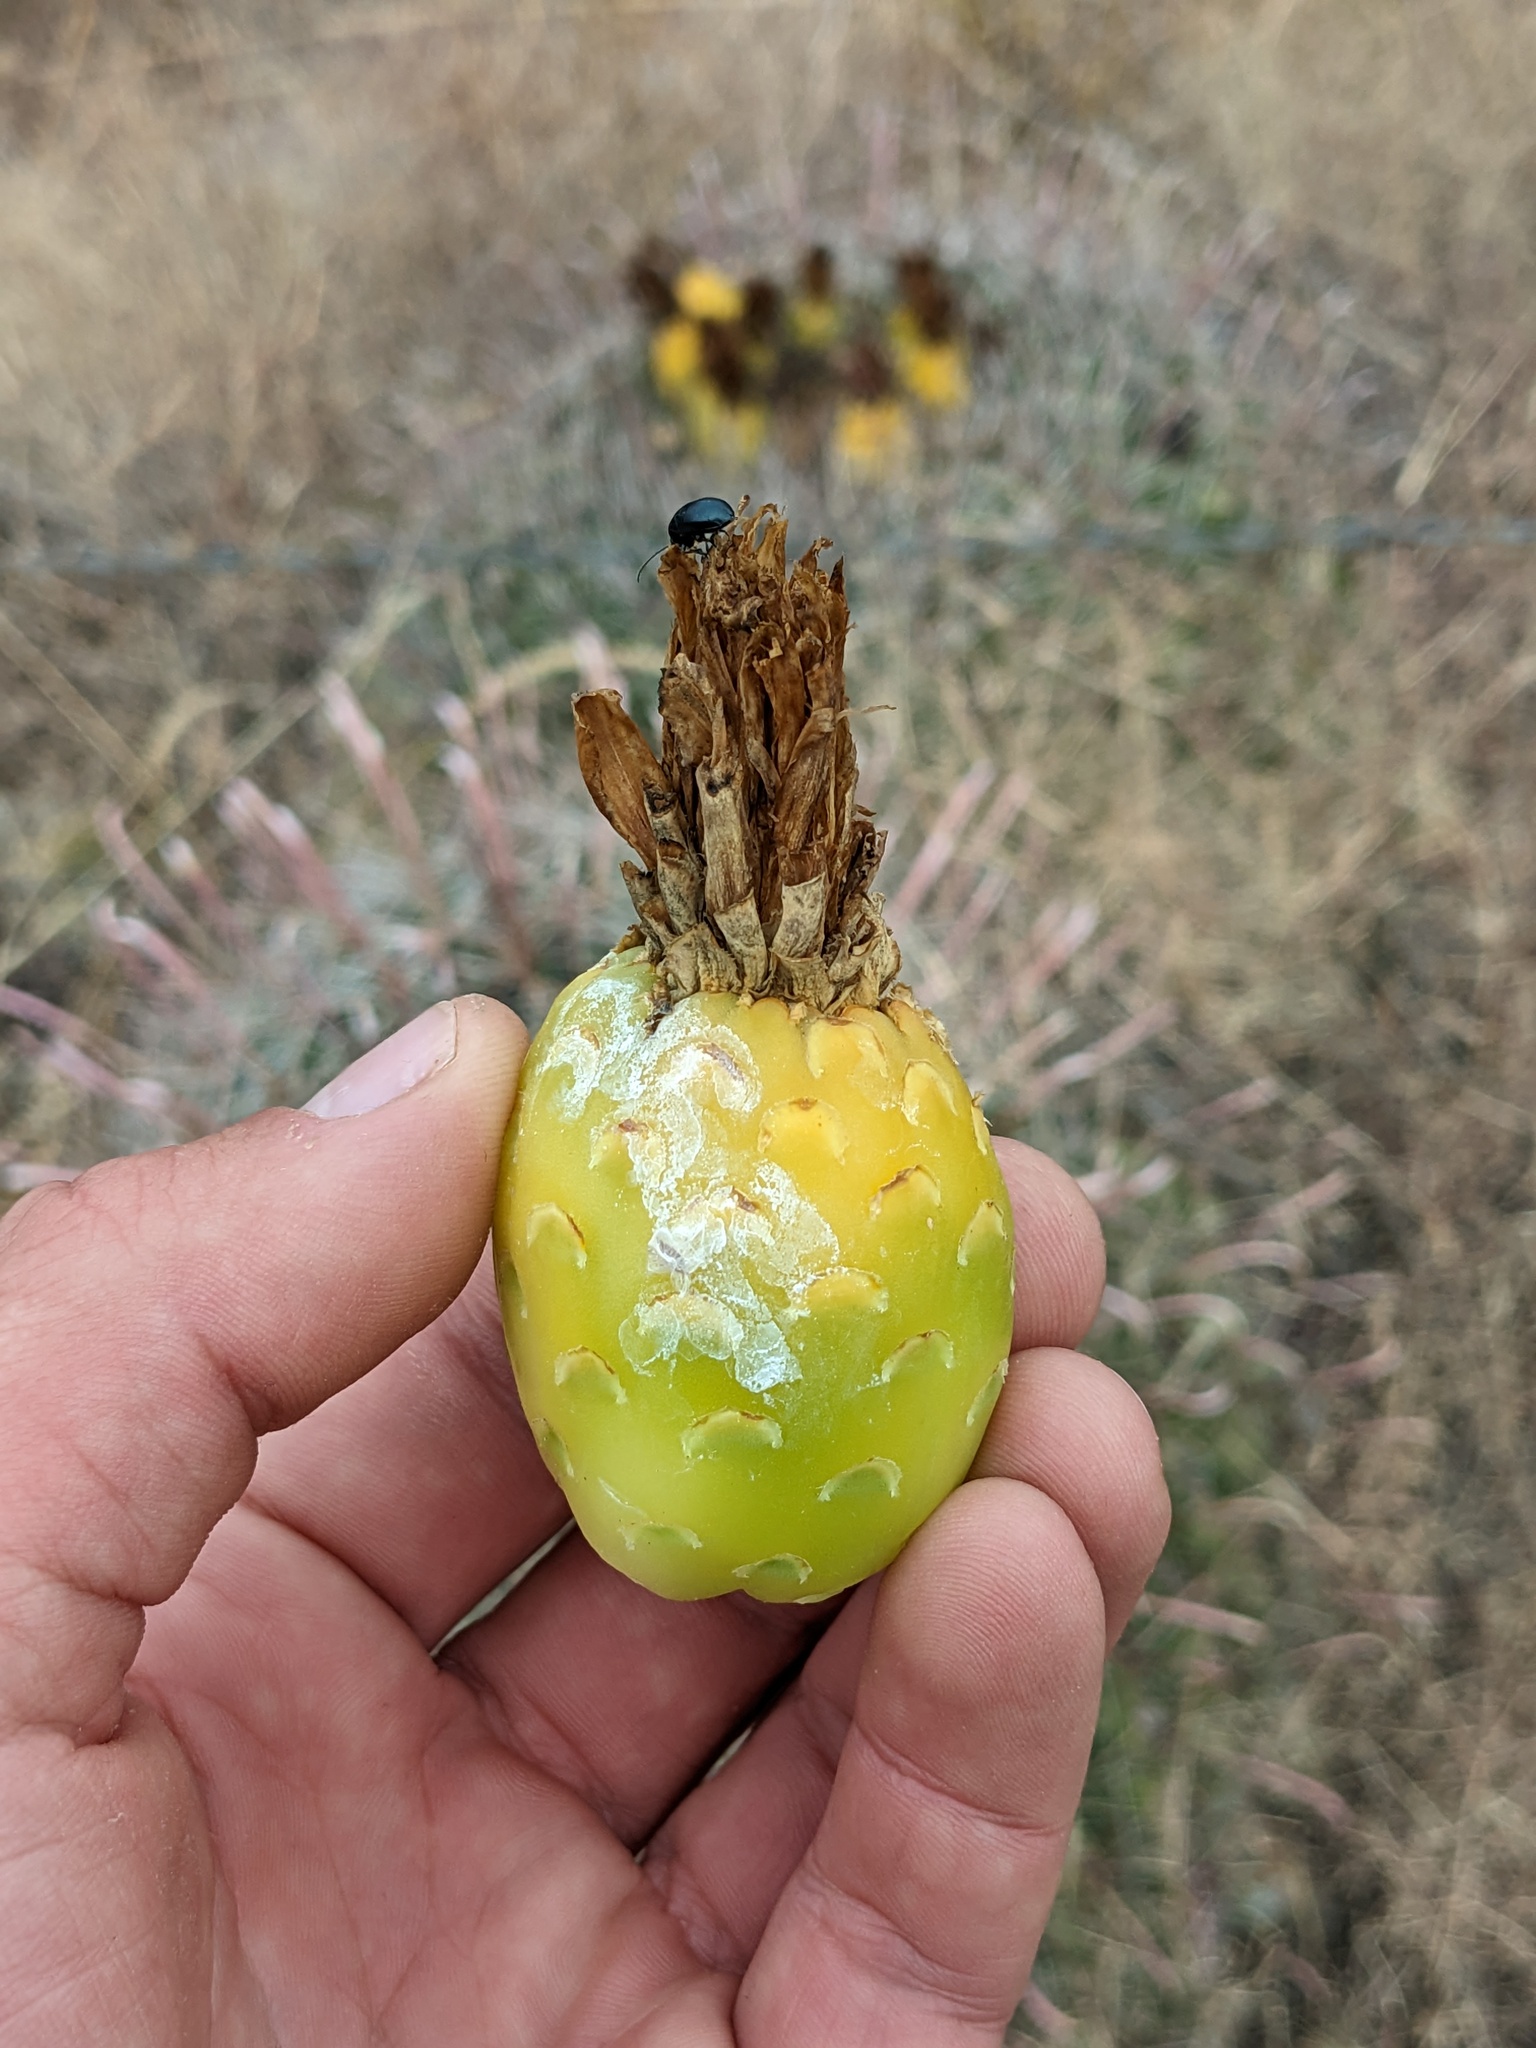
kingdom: Plantae
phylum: Tracheophyta
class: Magnoliopsida
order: Caryophyllales
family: Cactaceae
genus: Ferocactus
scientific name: Ferocactus wislizeni
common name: Candy barrel cactus
